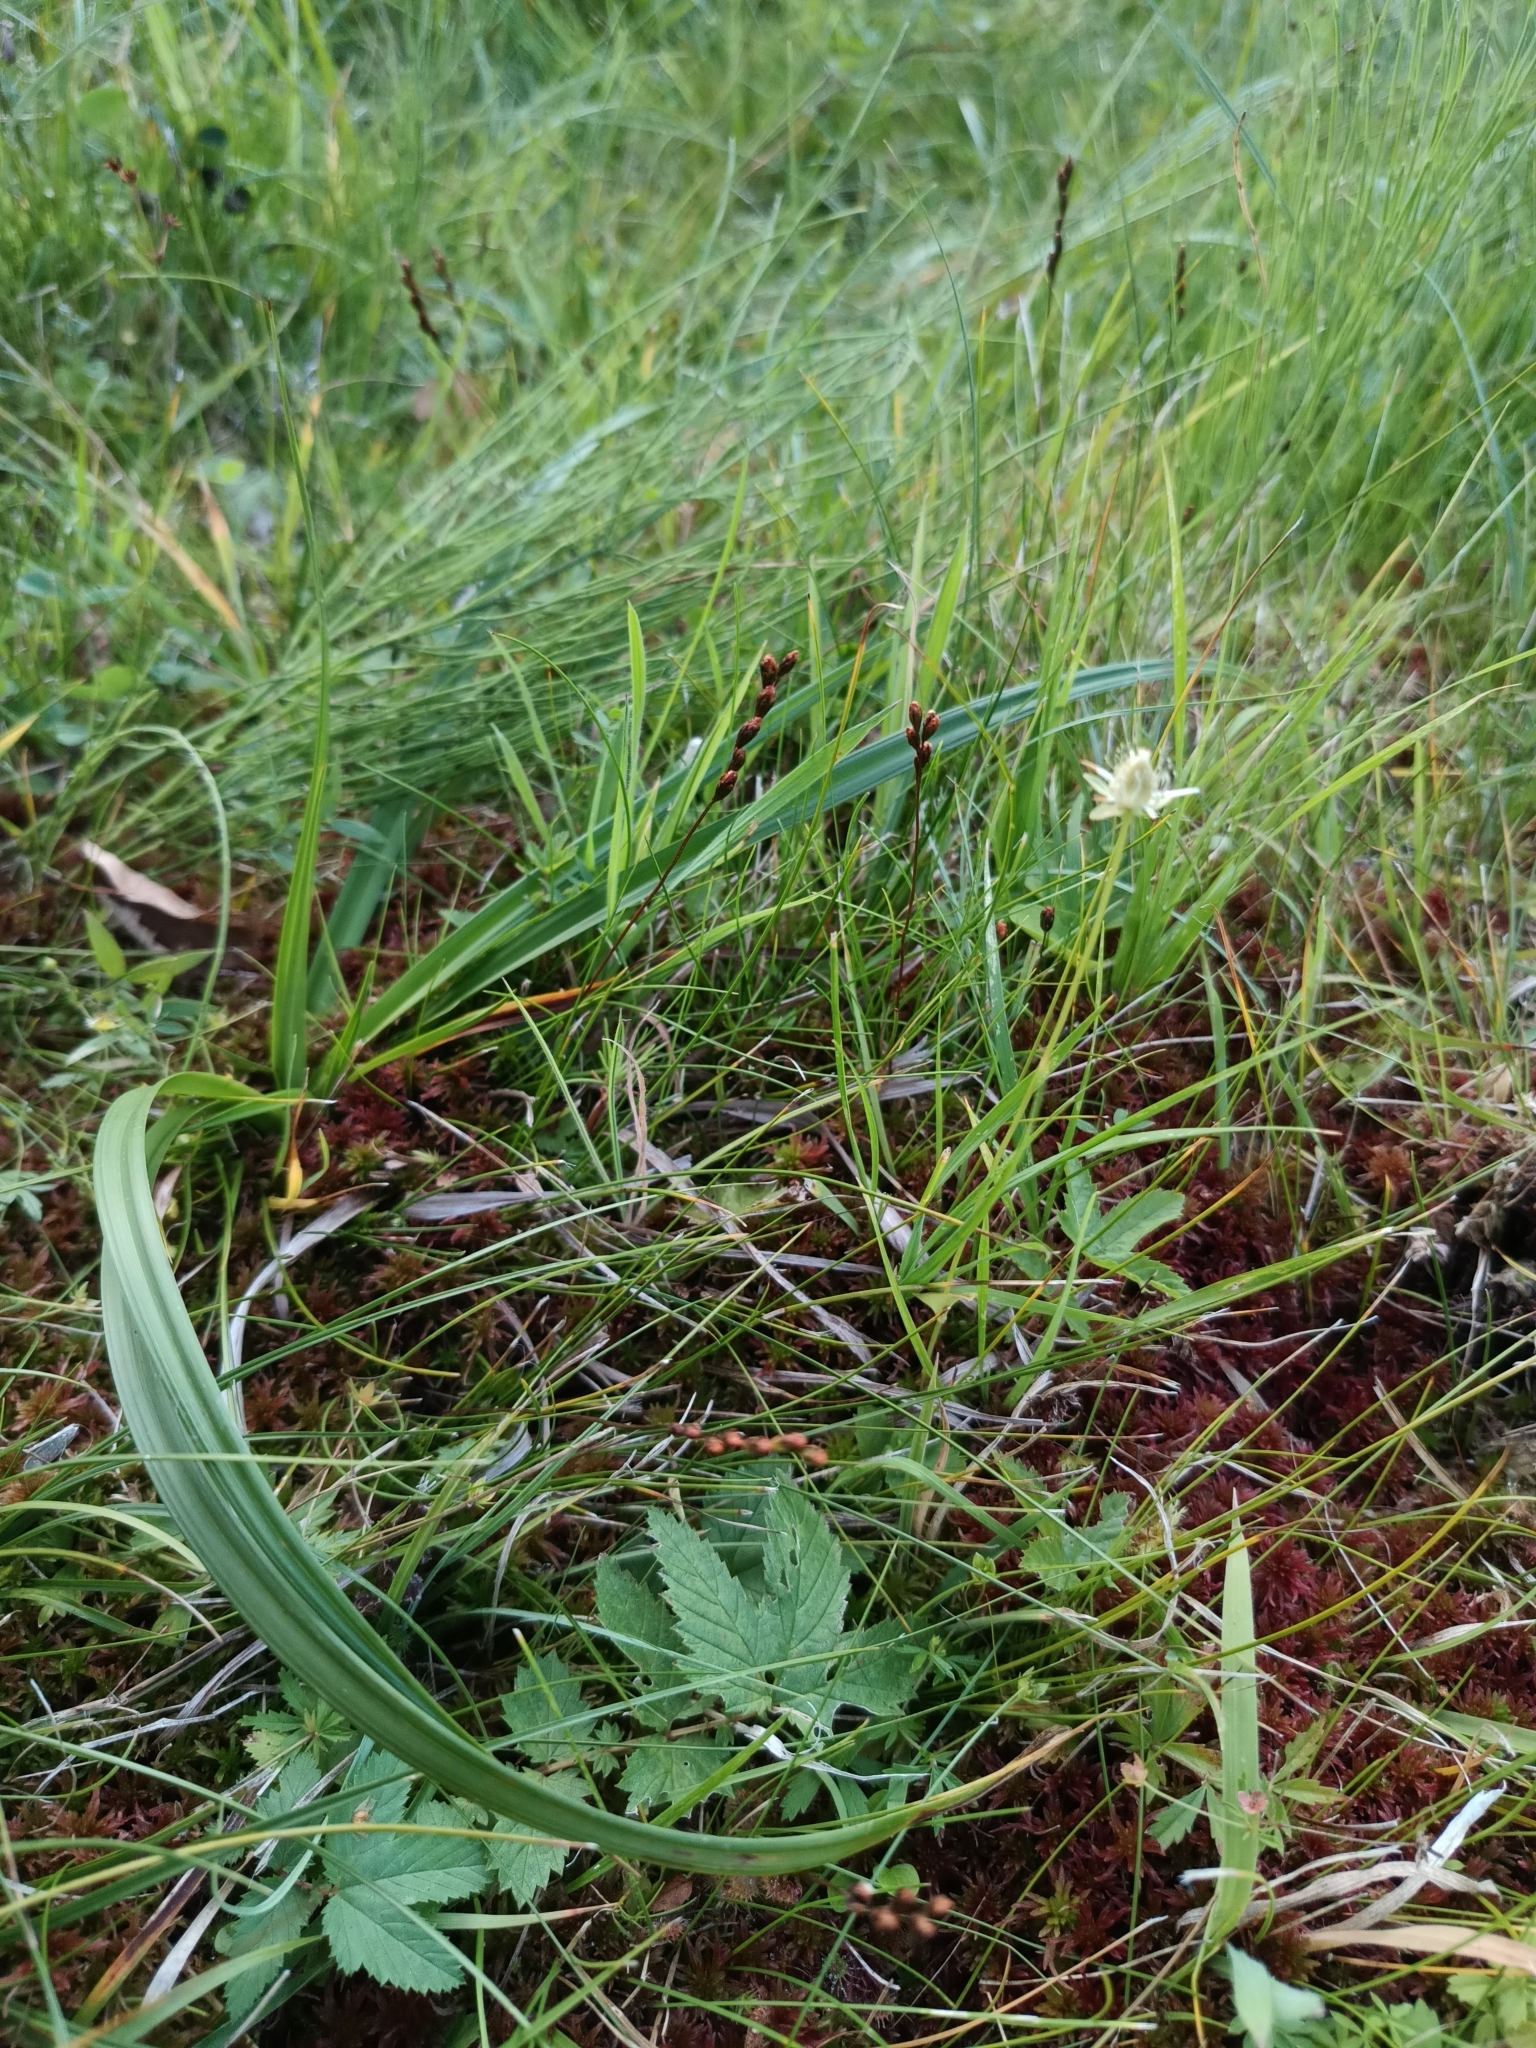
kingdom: Plantae
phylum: Tracheophyta
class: Magnoliopsida
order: Caryophyllales
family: Droseraceae
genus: Drosera
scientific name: Drosera rotundifolia
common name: Round-leaved sundew
